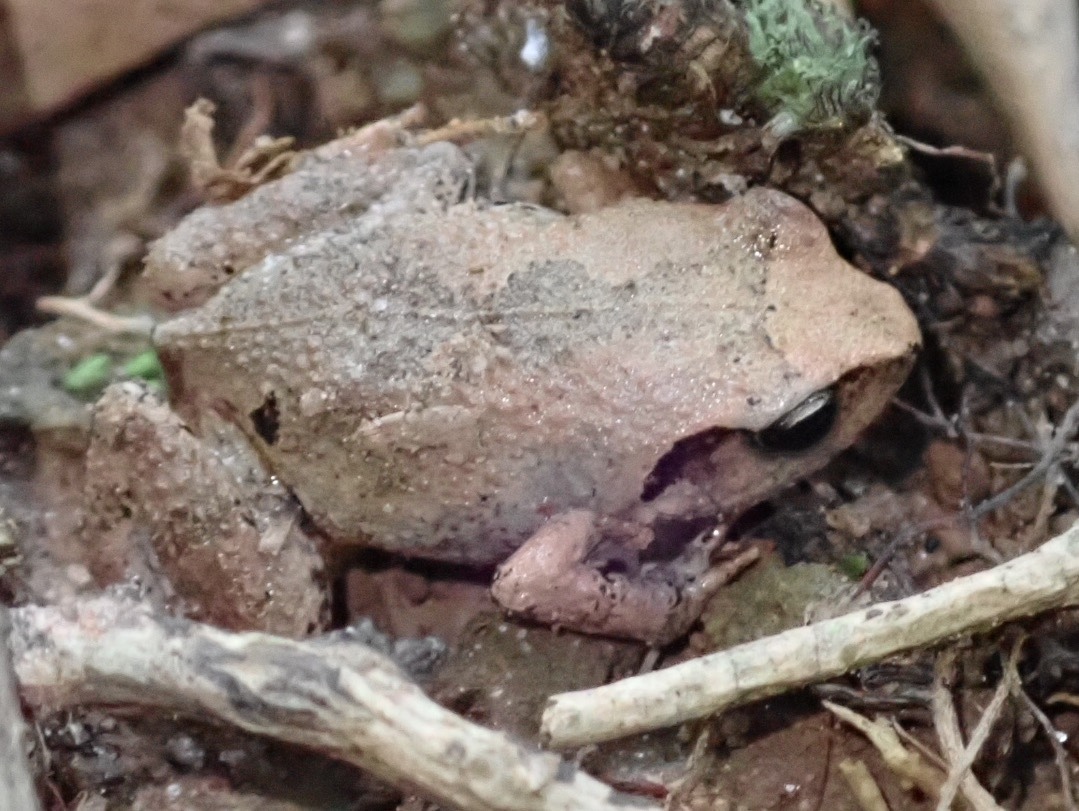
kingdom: Animalia
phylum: Chordata
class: Amphibia
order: Anura
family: Arthroleptidae
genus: Arthroleptis
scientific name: Arthroleptis wahlbergii
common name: Bush squeaker
